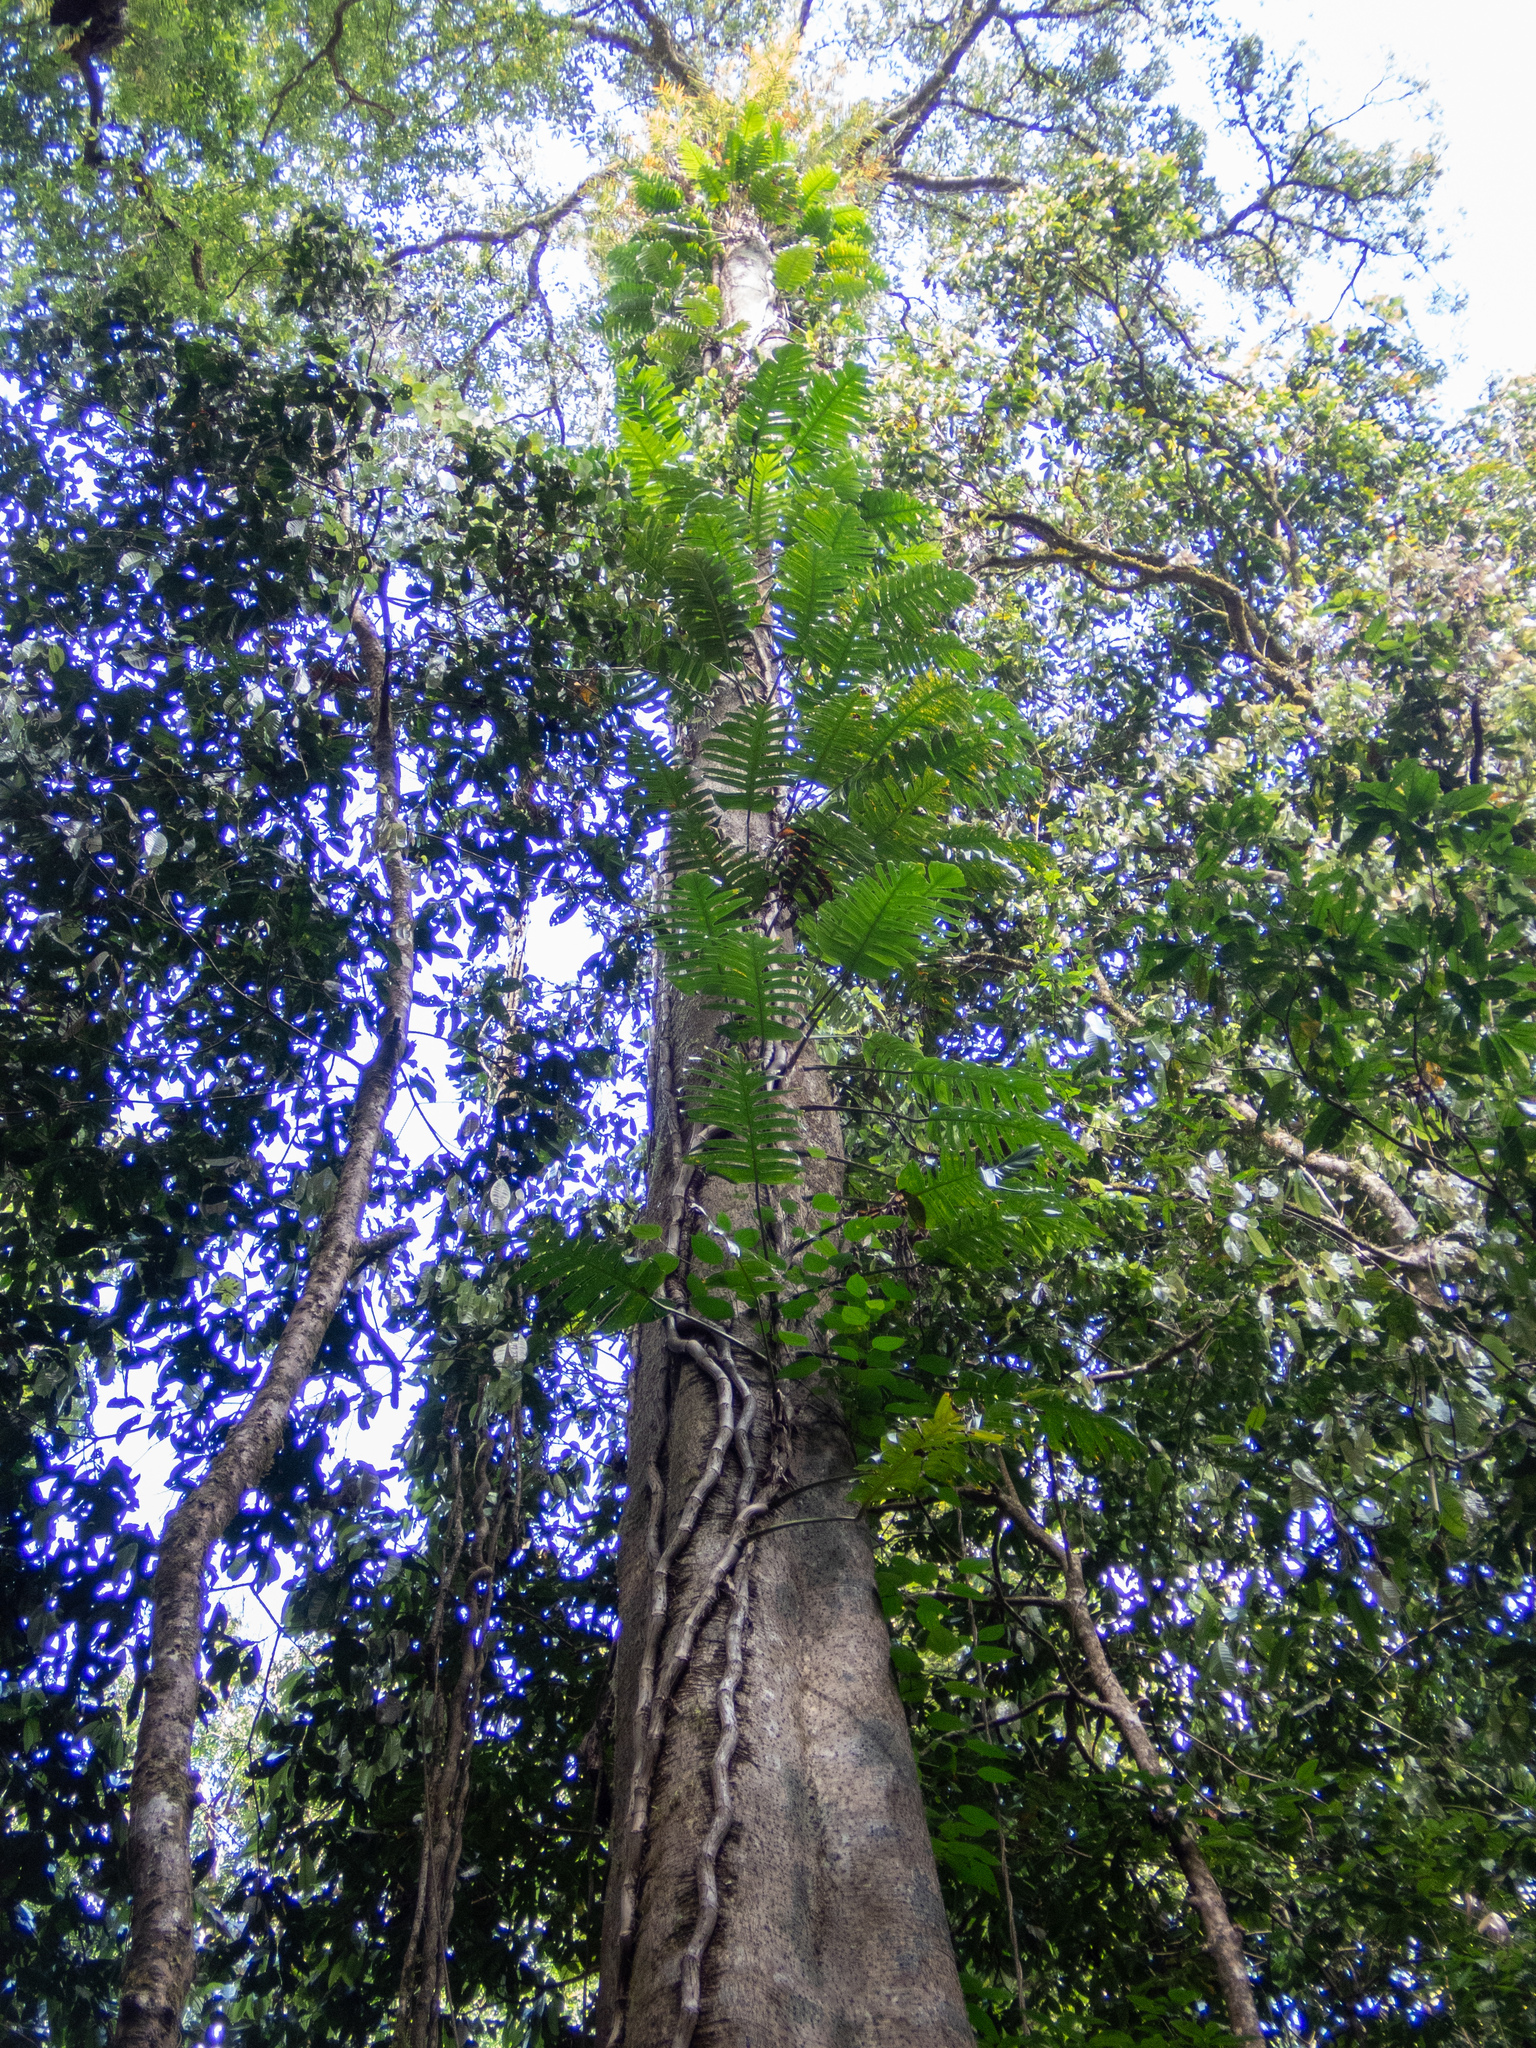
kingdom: Plantae
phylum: Tracheophyta
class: Liliopsida
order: Alismatales
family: Araceae
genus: Epipremnum
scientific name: Epipremnum pinnatum
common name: Centipede tongavine
